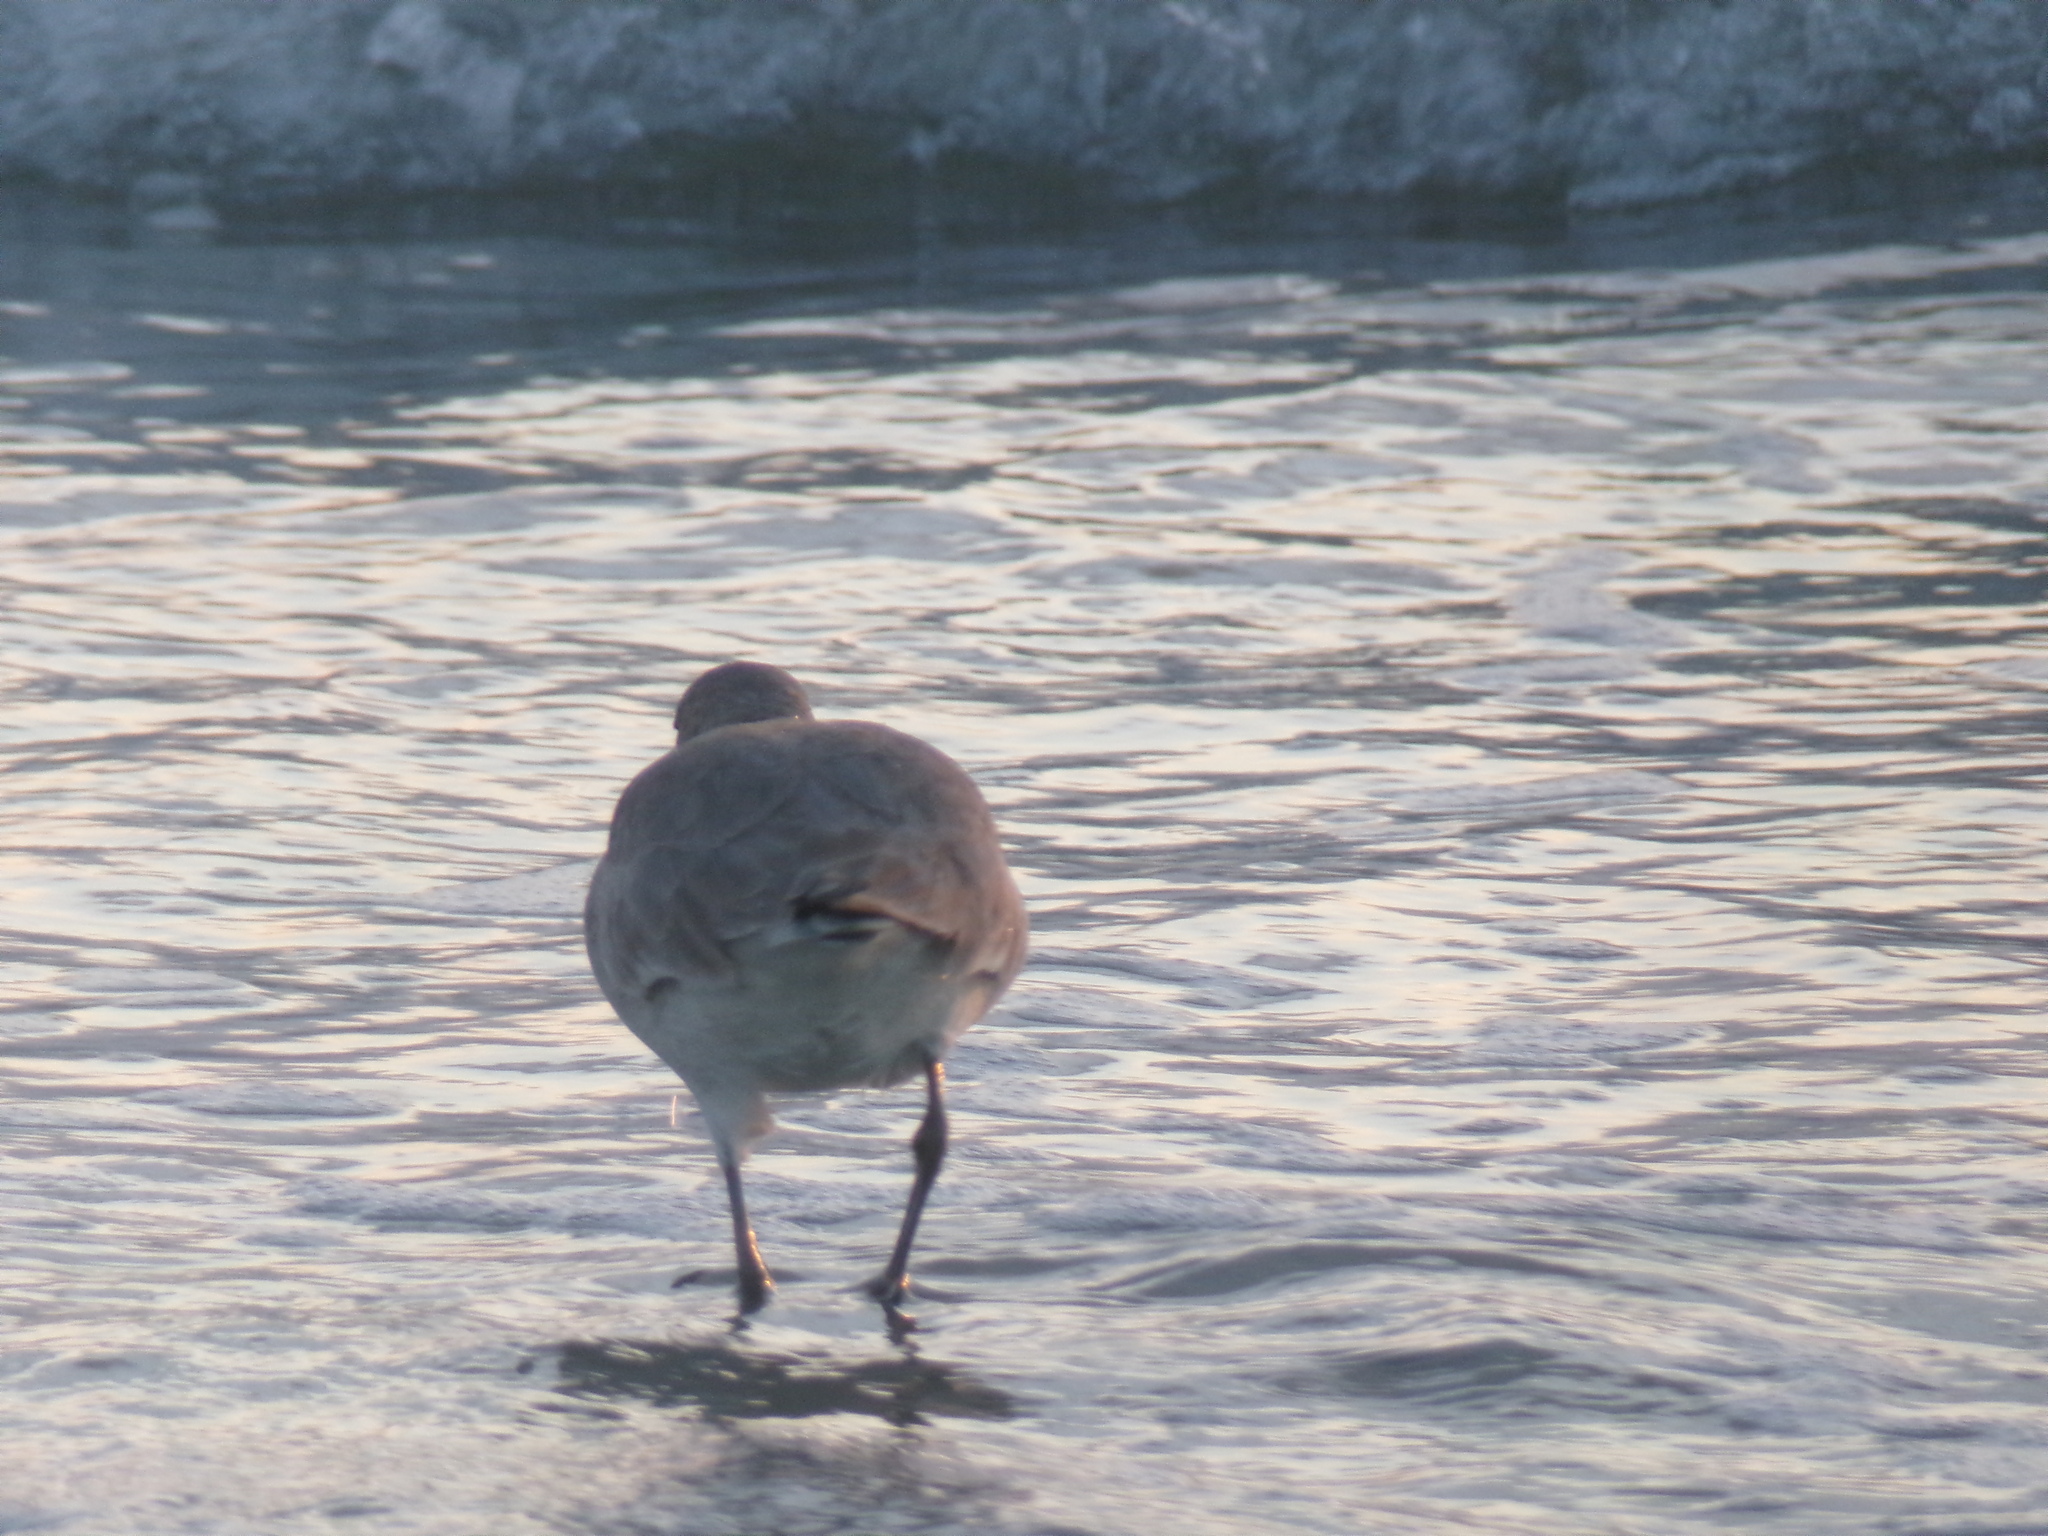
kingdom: Animalia
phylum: Chordata
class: Aves
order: Charadriiformes
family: Scolopacidae
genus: Tringa
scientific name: Tringa semipalmata
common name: Willet
